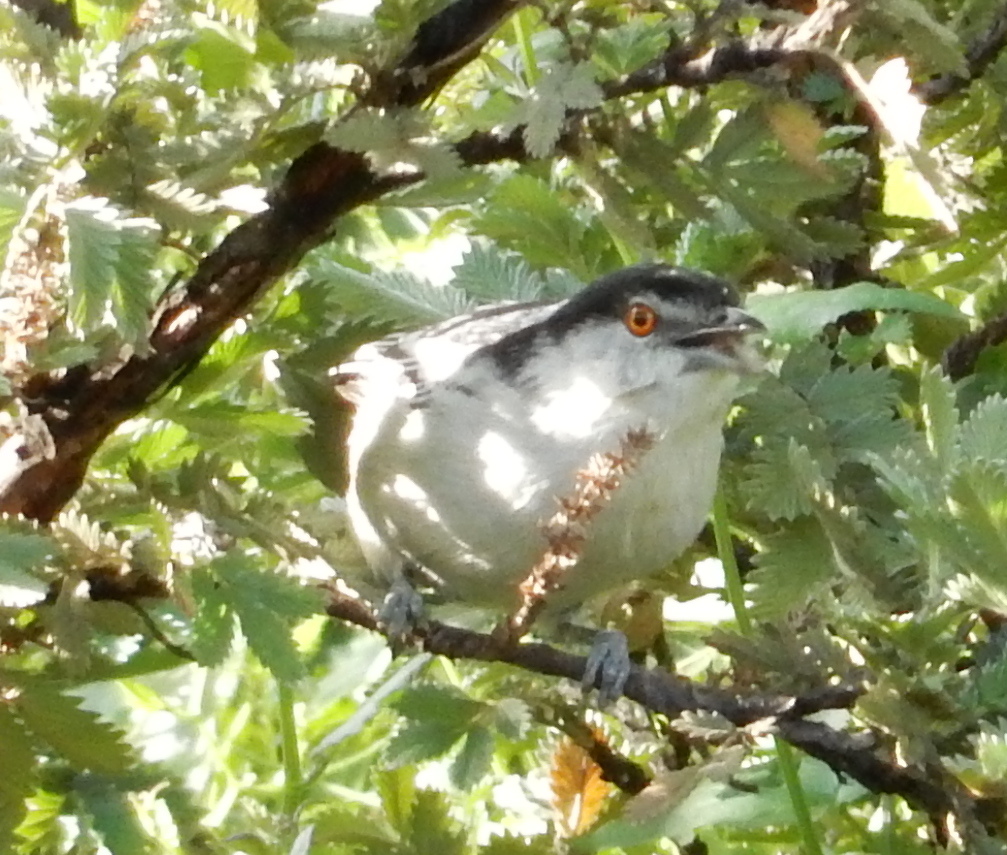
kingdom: Animalia
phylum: Chordata
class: Aves
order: Passeriformes
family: Malaconotidae
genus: Dryoscopus
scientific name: Dryoscopus cubla
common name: Black-backed puffback
